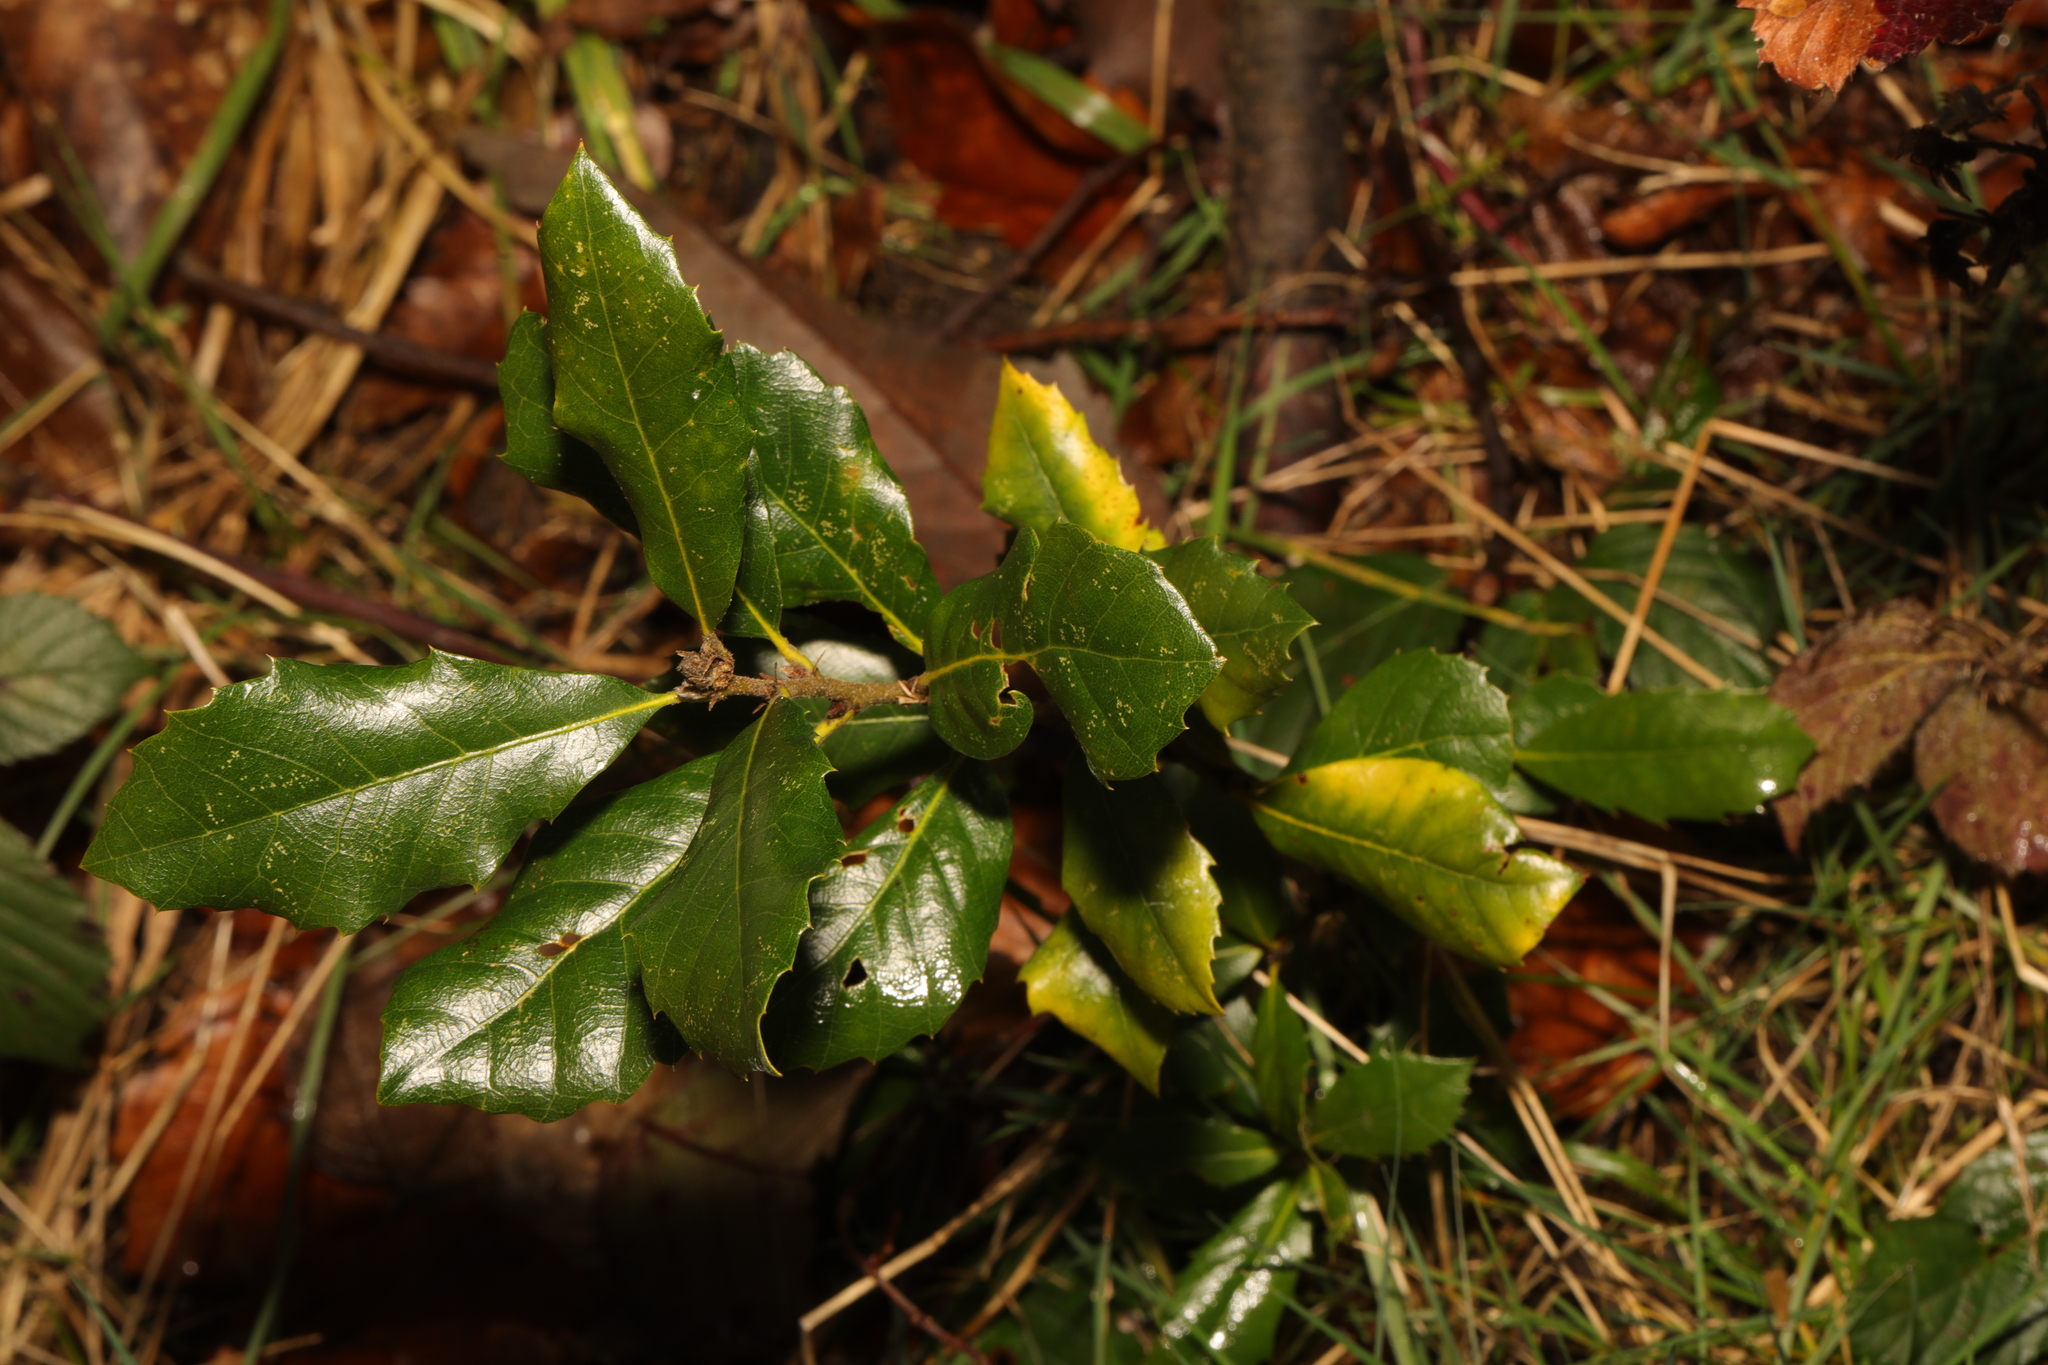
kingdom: Plantae
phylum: Tracheophyta
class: Magnoliopsida
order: Fagales
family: Fagaceae
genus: Quercus
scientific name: Quercus ilex
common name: Evergreen oak
